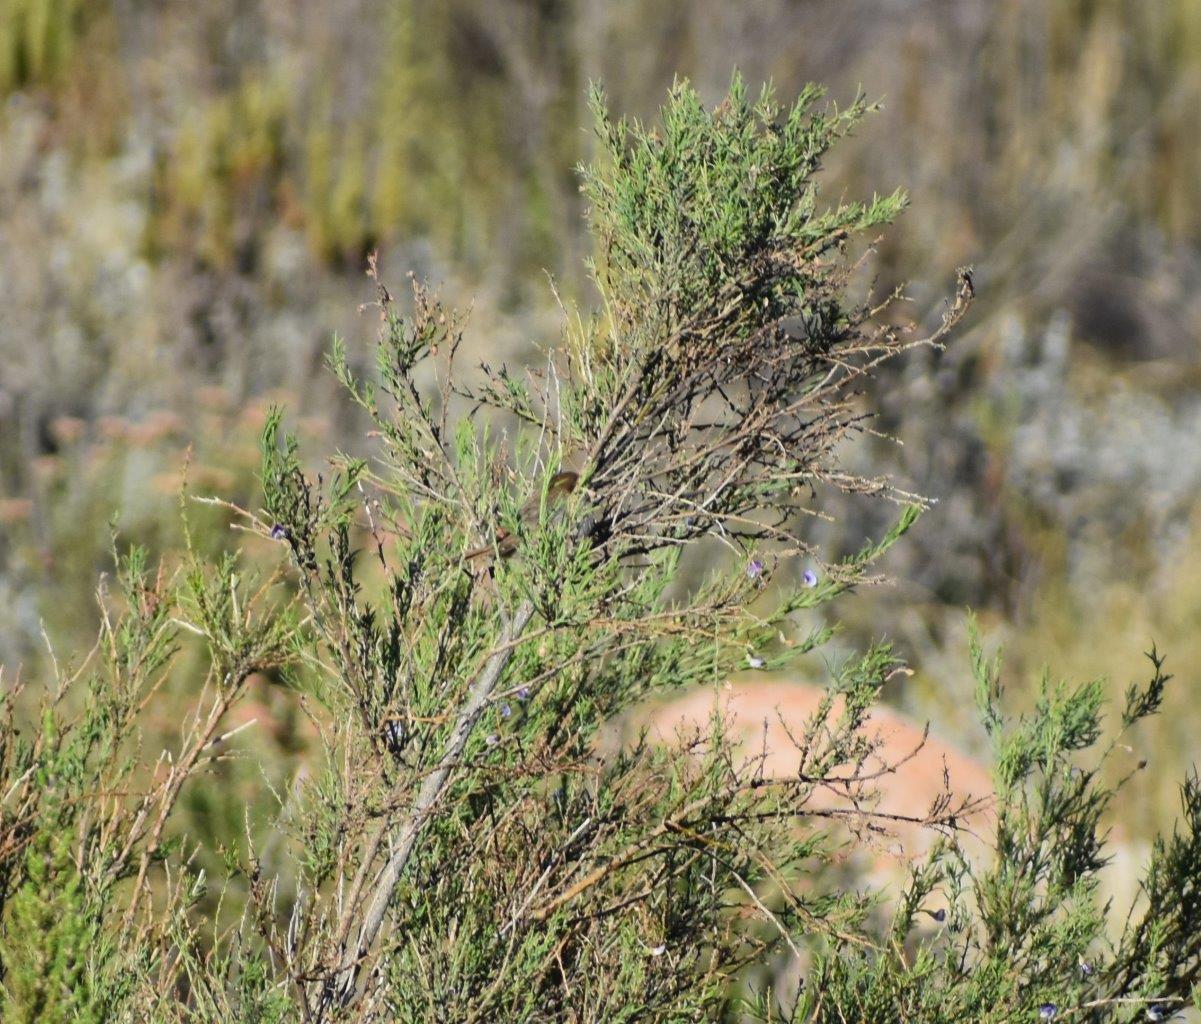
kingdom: Animalia
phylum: Chordata
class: Aves
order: Passeriformes
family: Cisticolidae
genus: Cisticola
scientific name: Cisticola subruficapilla
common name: Grey-backed cisticola
